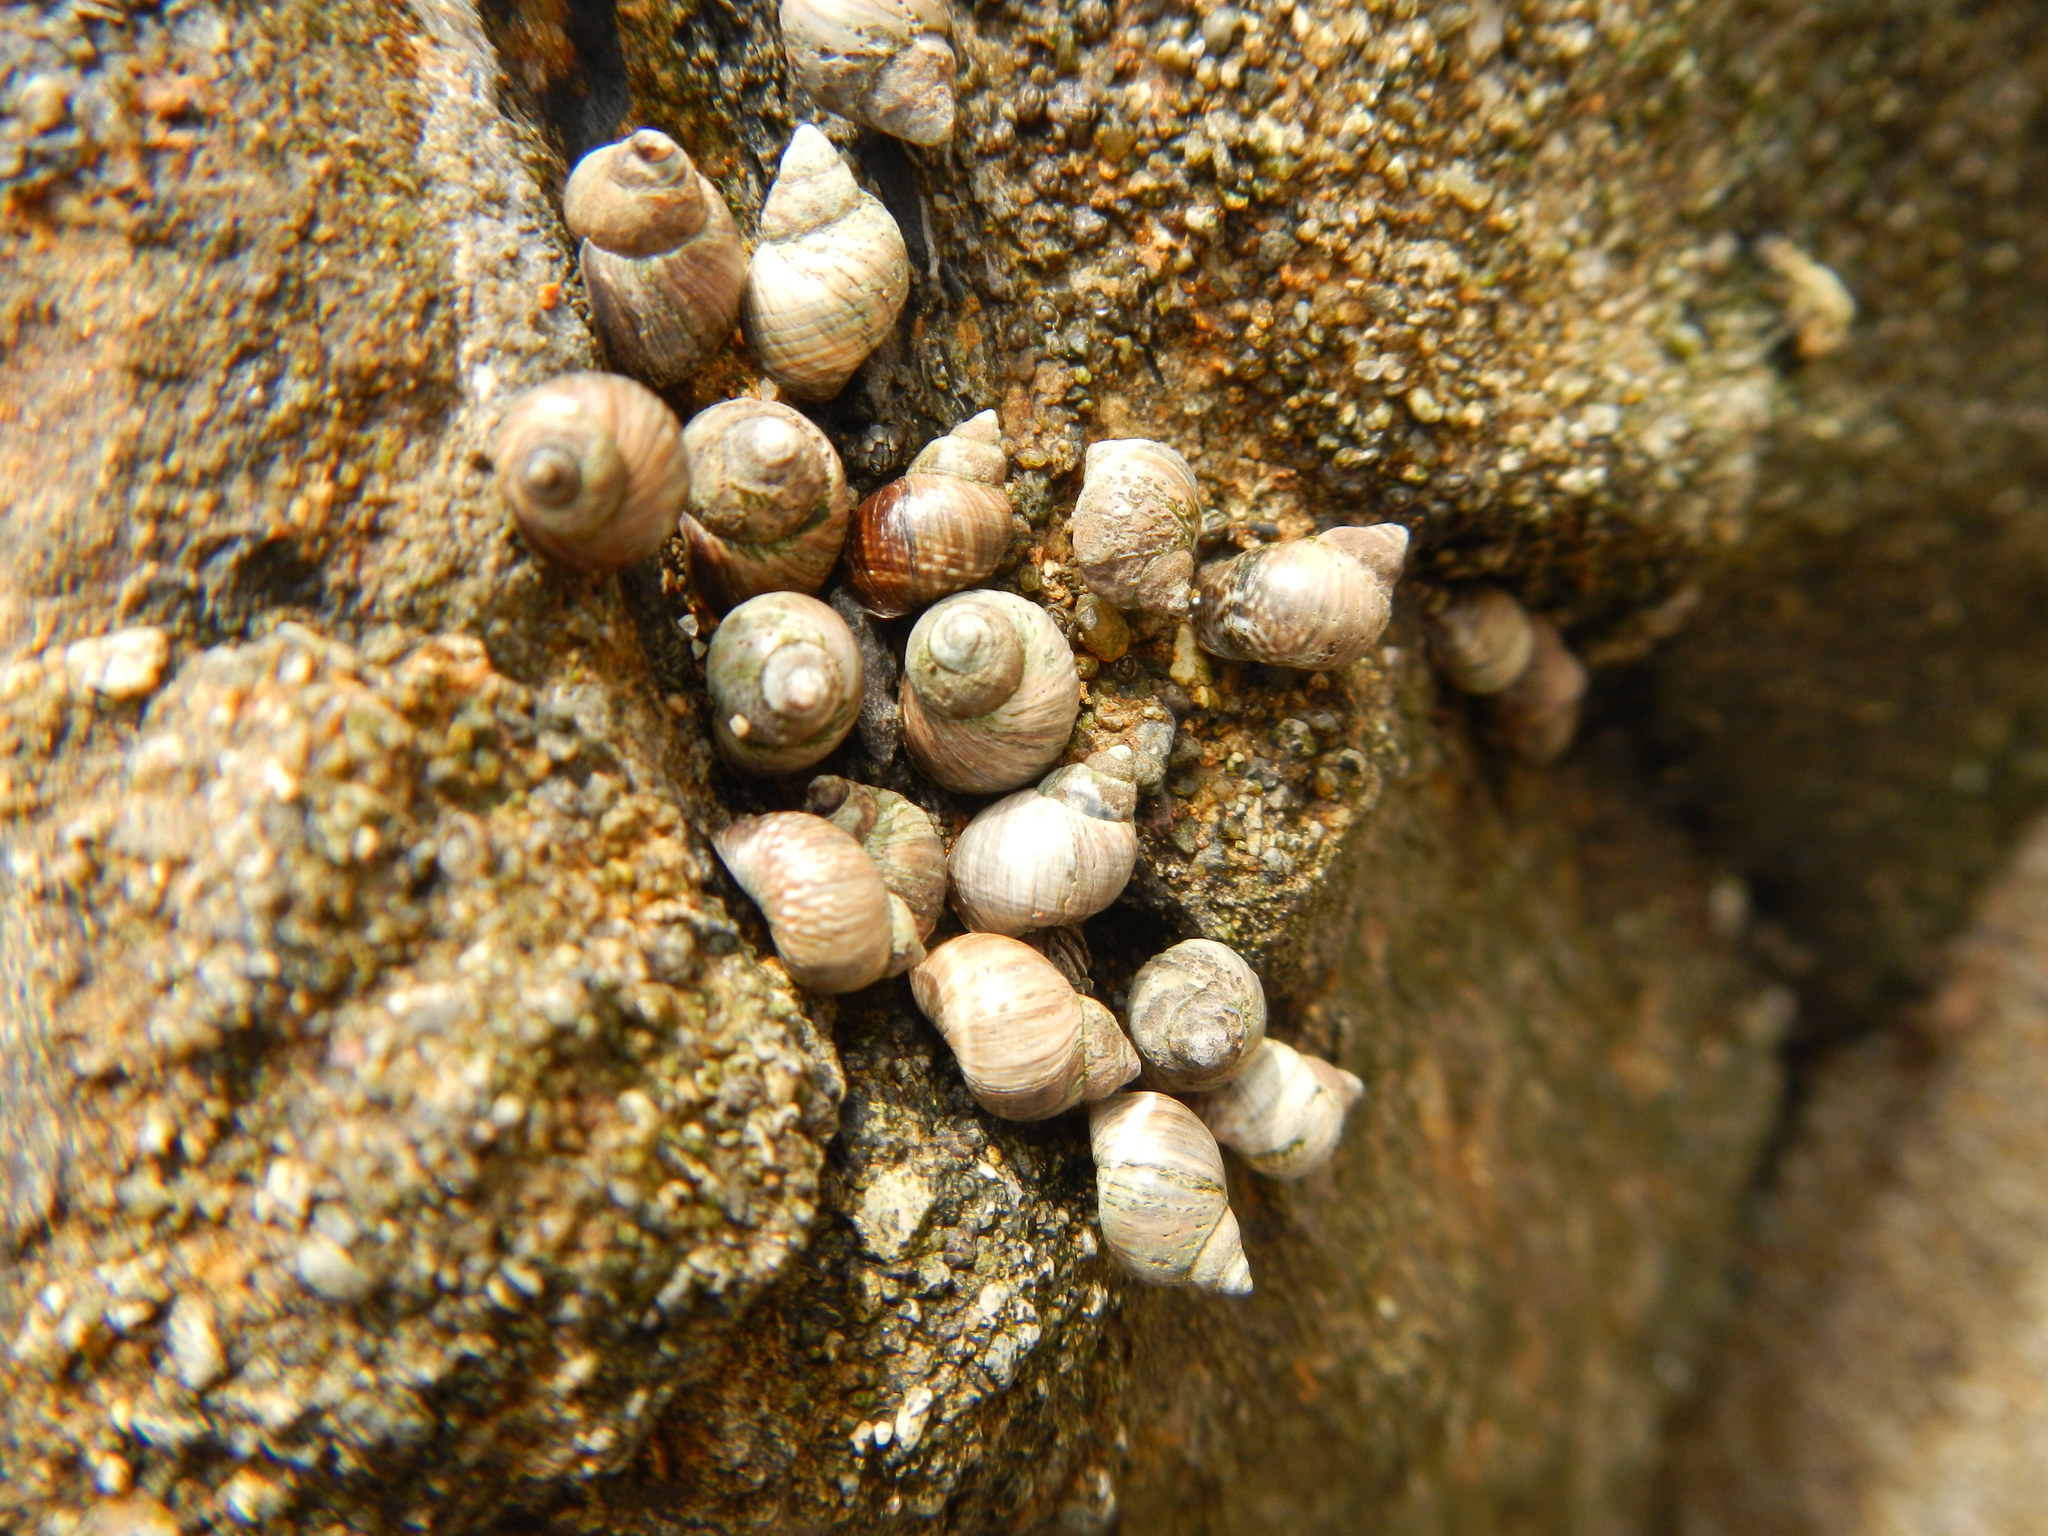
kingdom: Animalia
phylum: Mollusca
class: Gastropoda
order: Littorinimorpha
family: Littorinidae
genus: Austrolittorina
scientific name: Austrolittorina araucana
